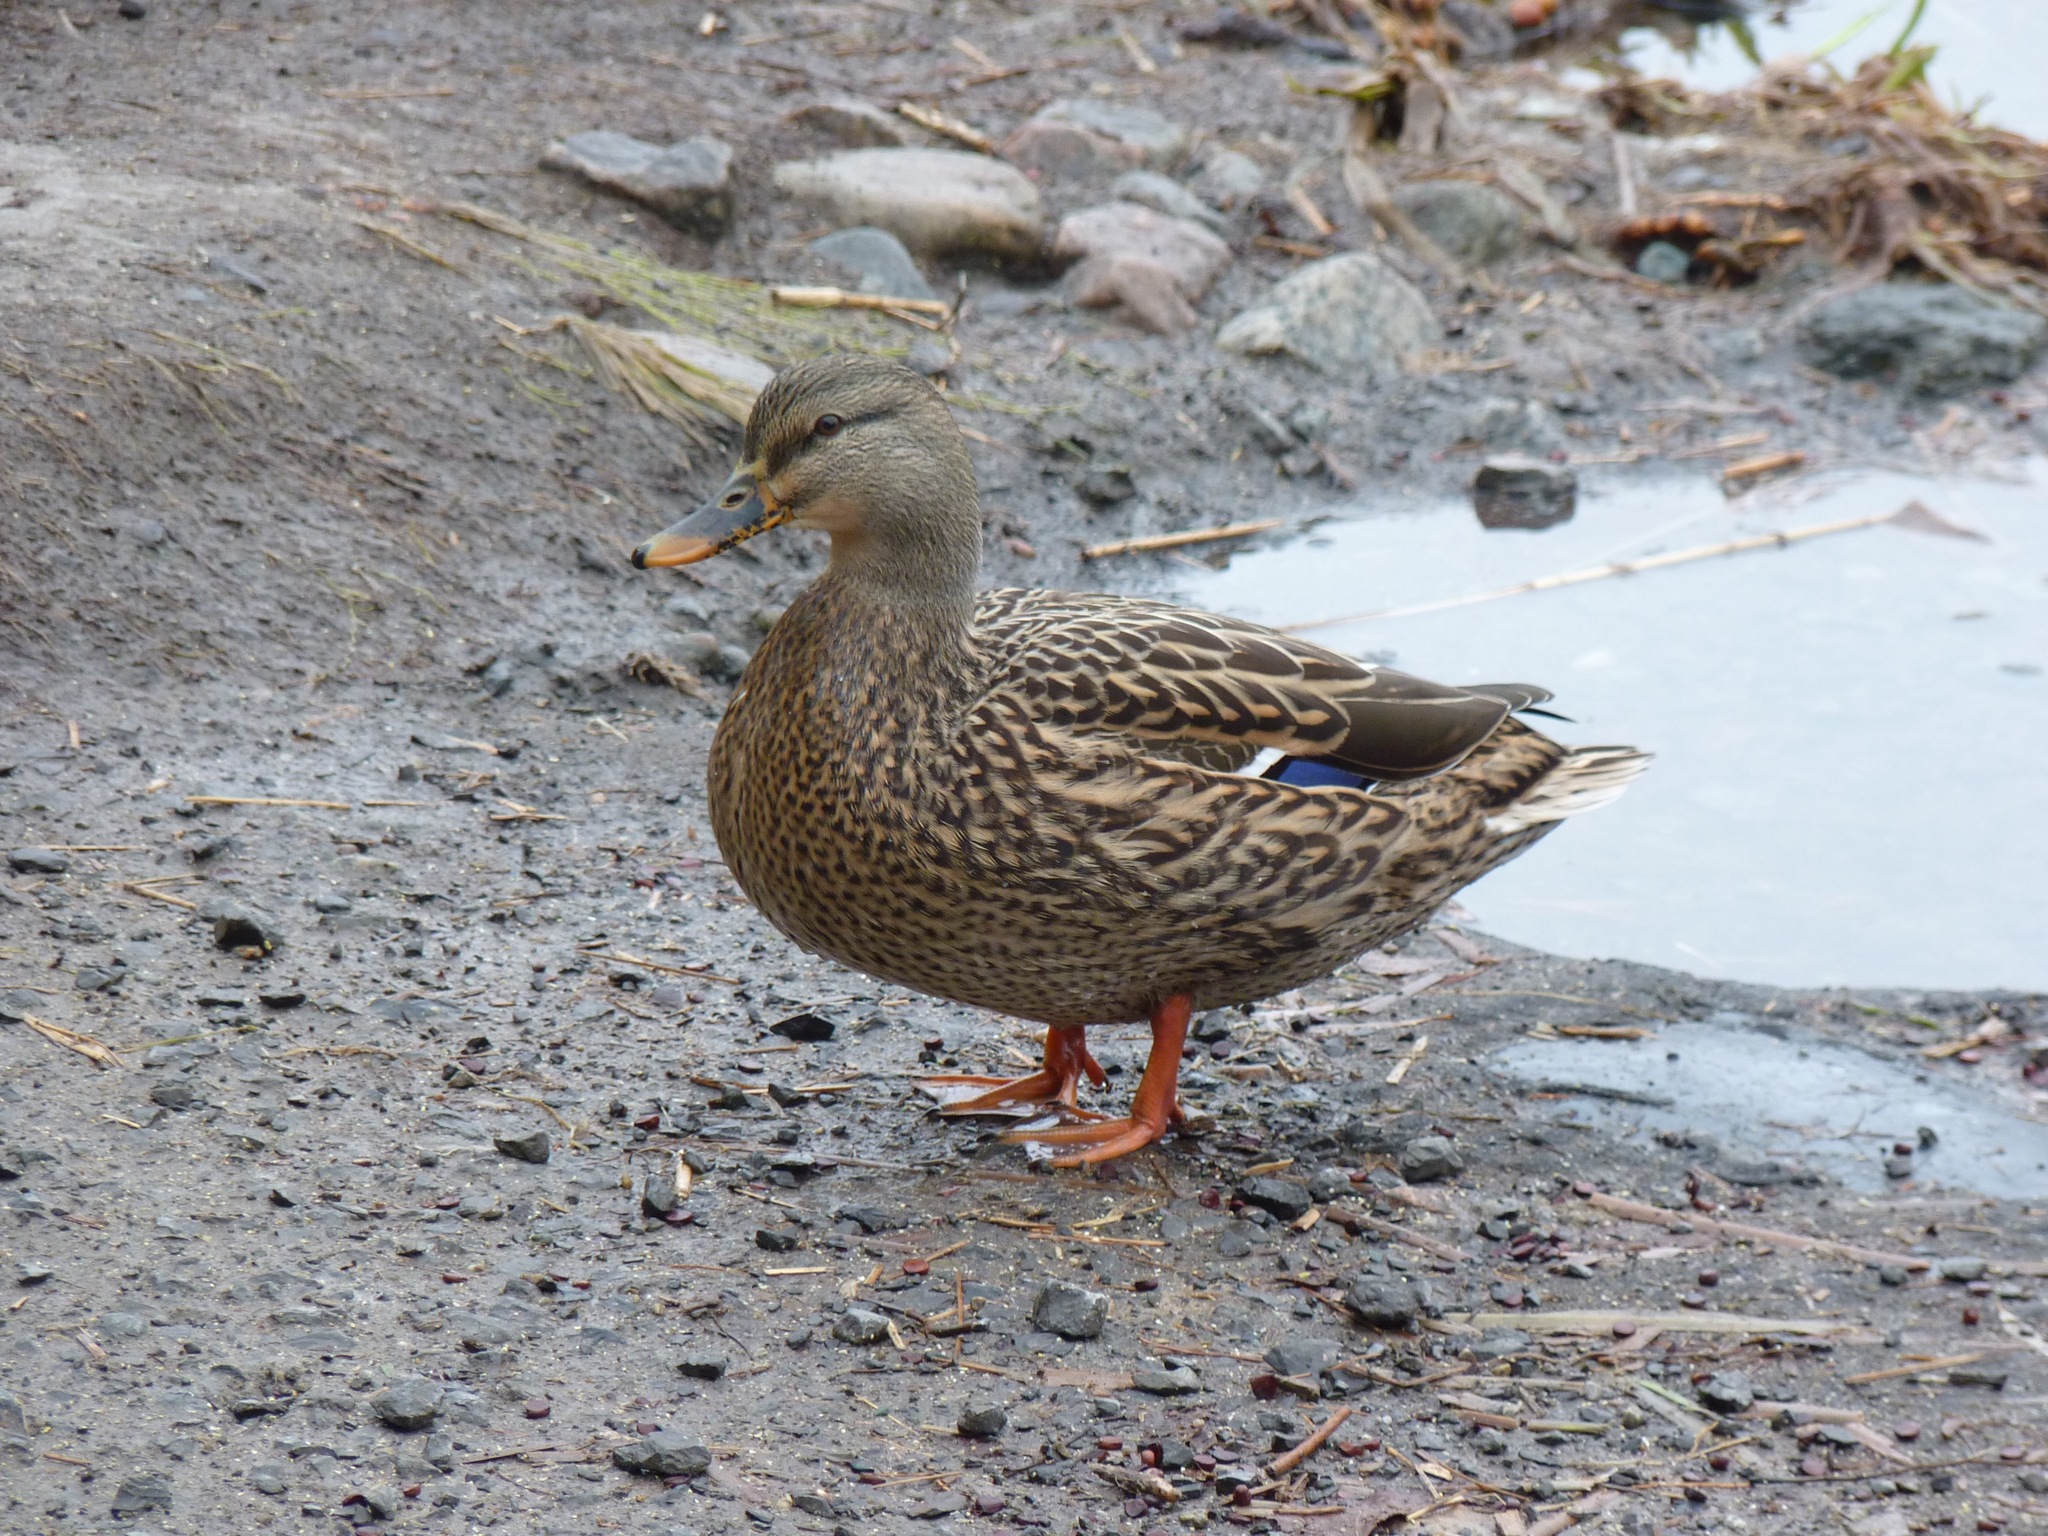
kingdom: Animalia
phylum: Chordata
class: Aves
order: Anseriformes
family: Anatidae
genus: Anas
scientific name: Anas platyrhynchos
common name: Mallard
